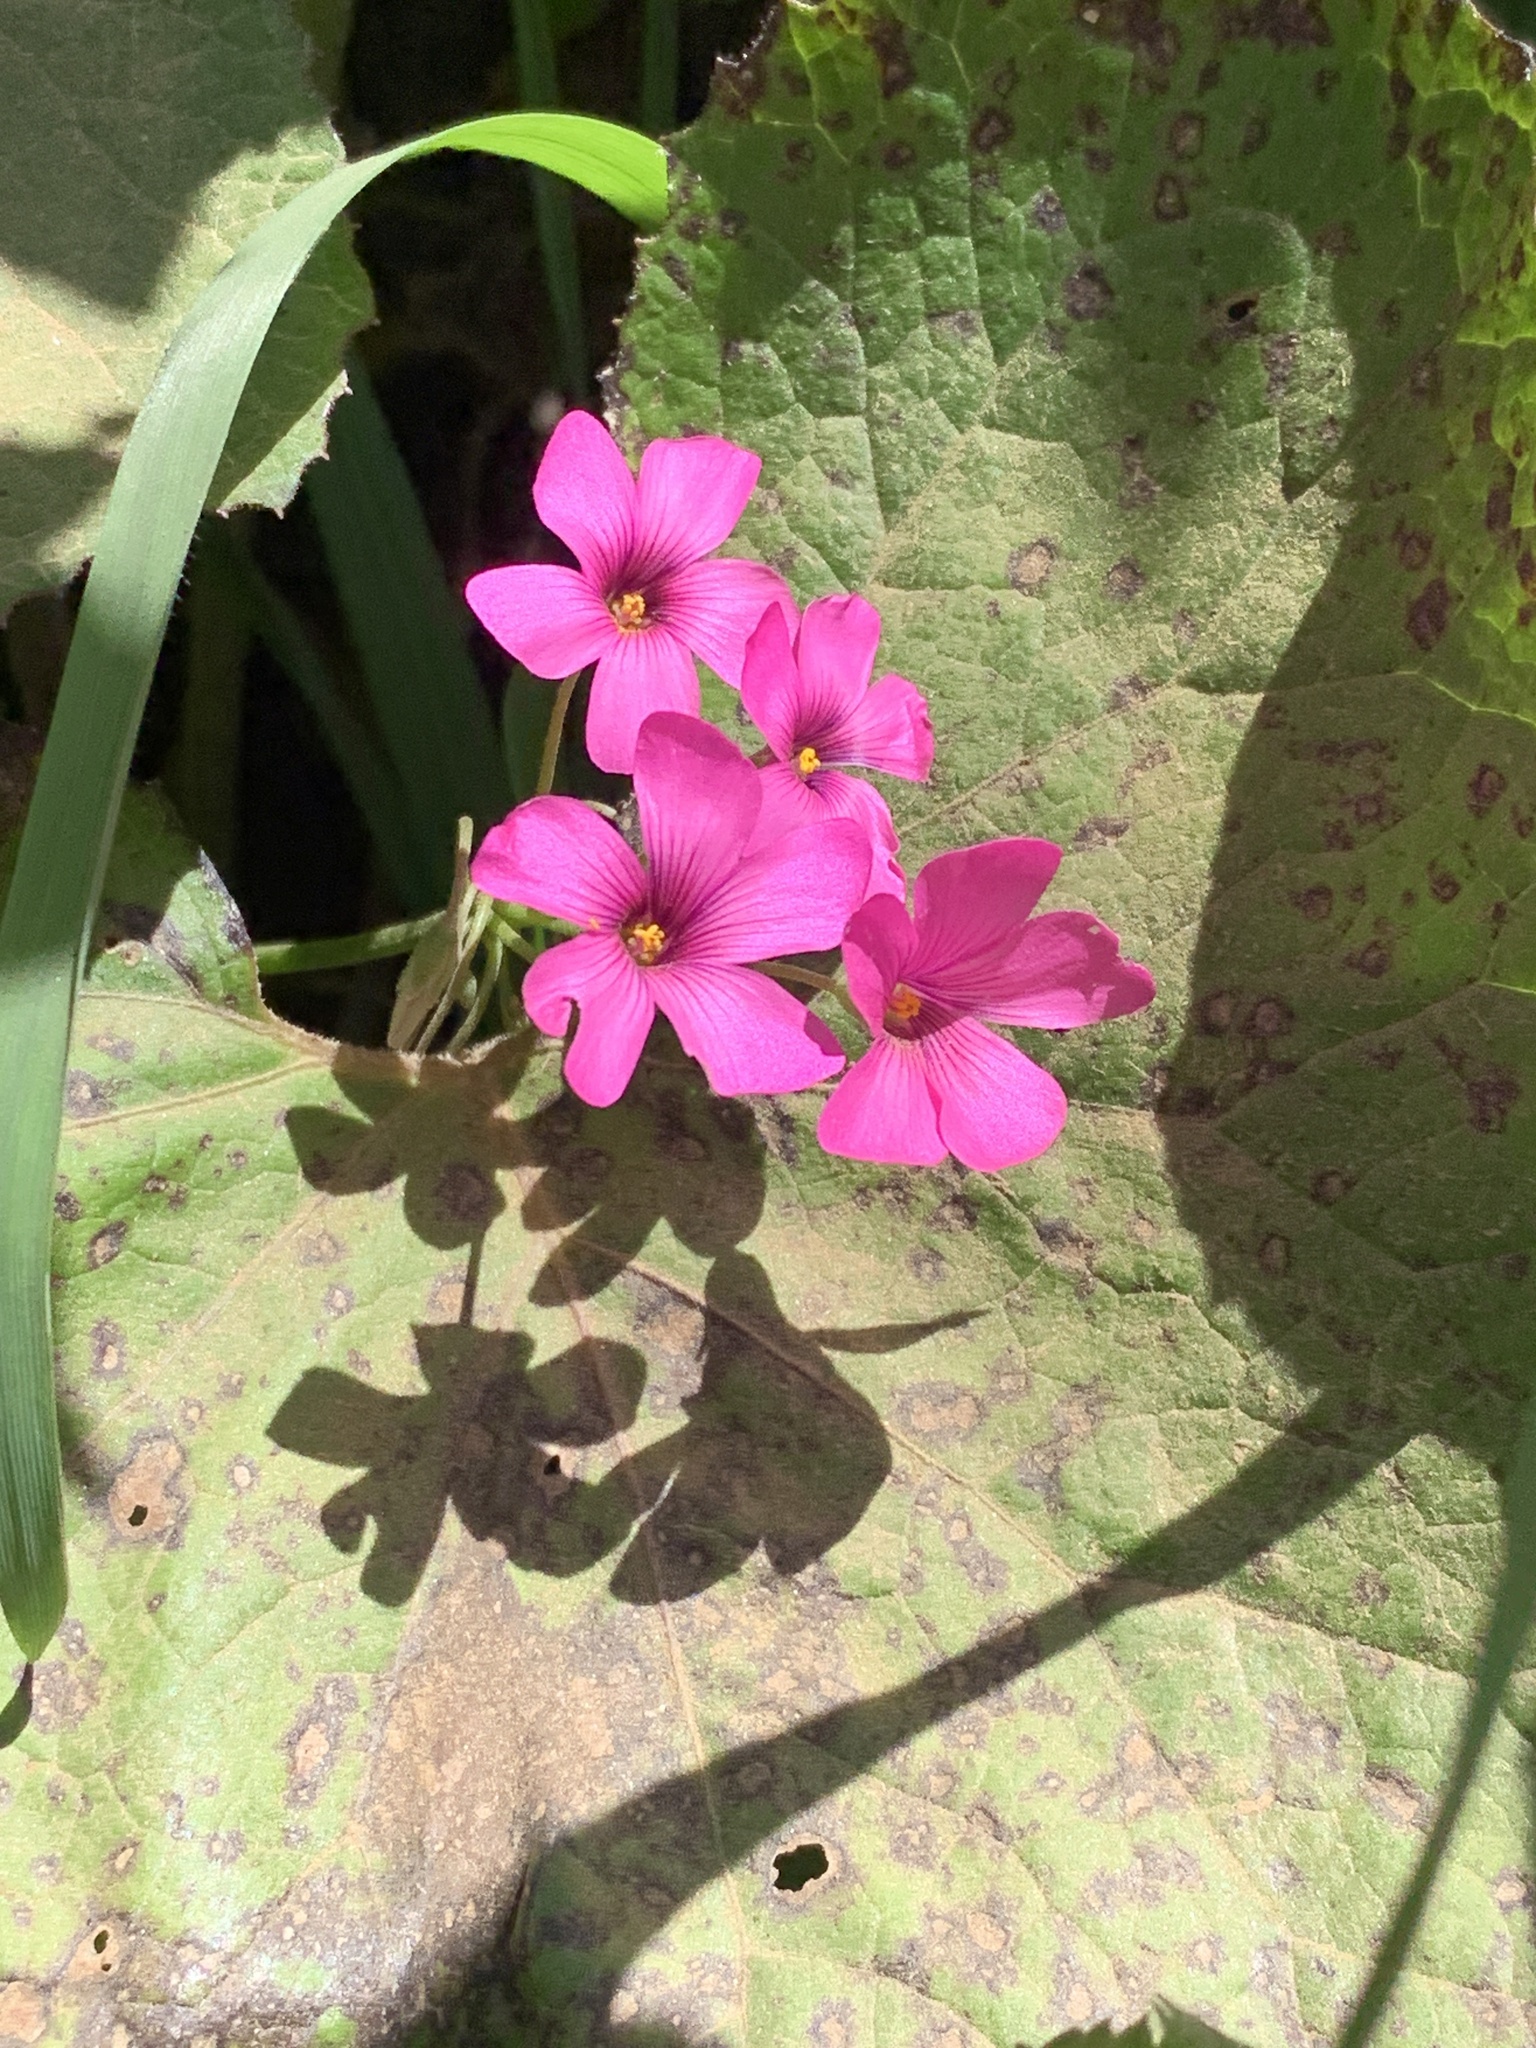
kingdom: Plantae
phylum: Tracheophyta
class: Magnoliopsida
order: Oxalidales
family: Oxalidaceae
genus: Oxalis
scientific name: Oxalis articulata
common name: Pink-sorrel
